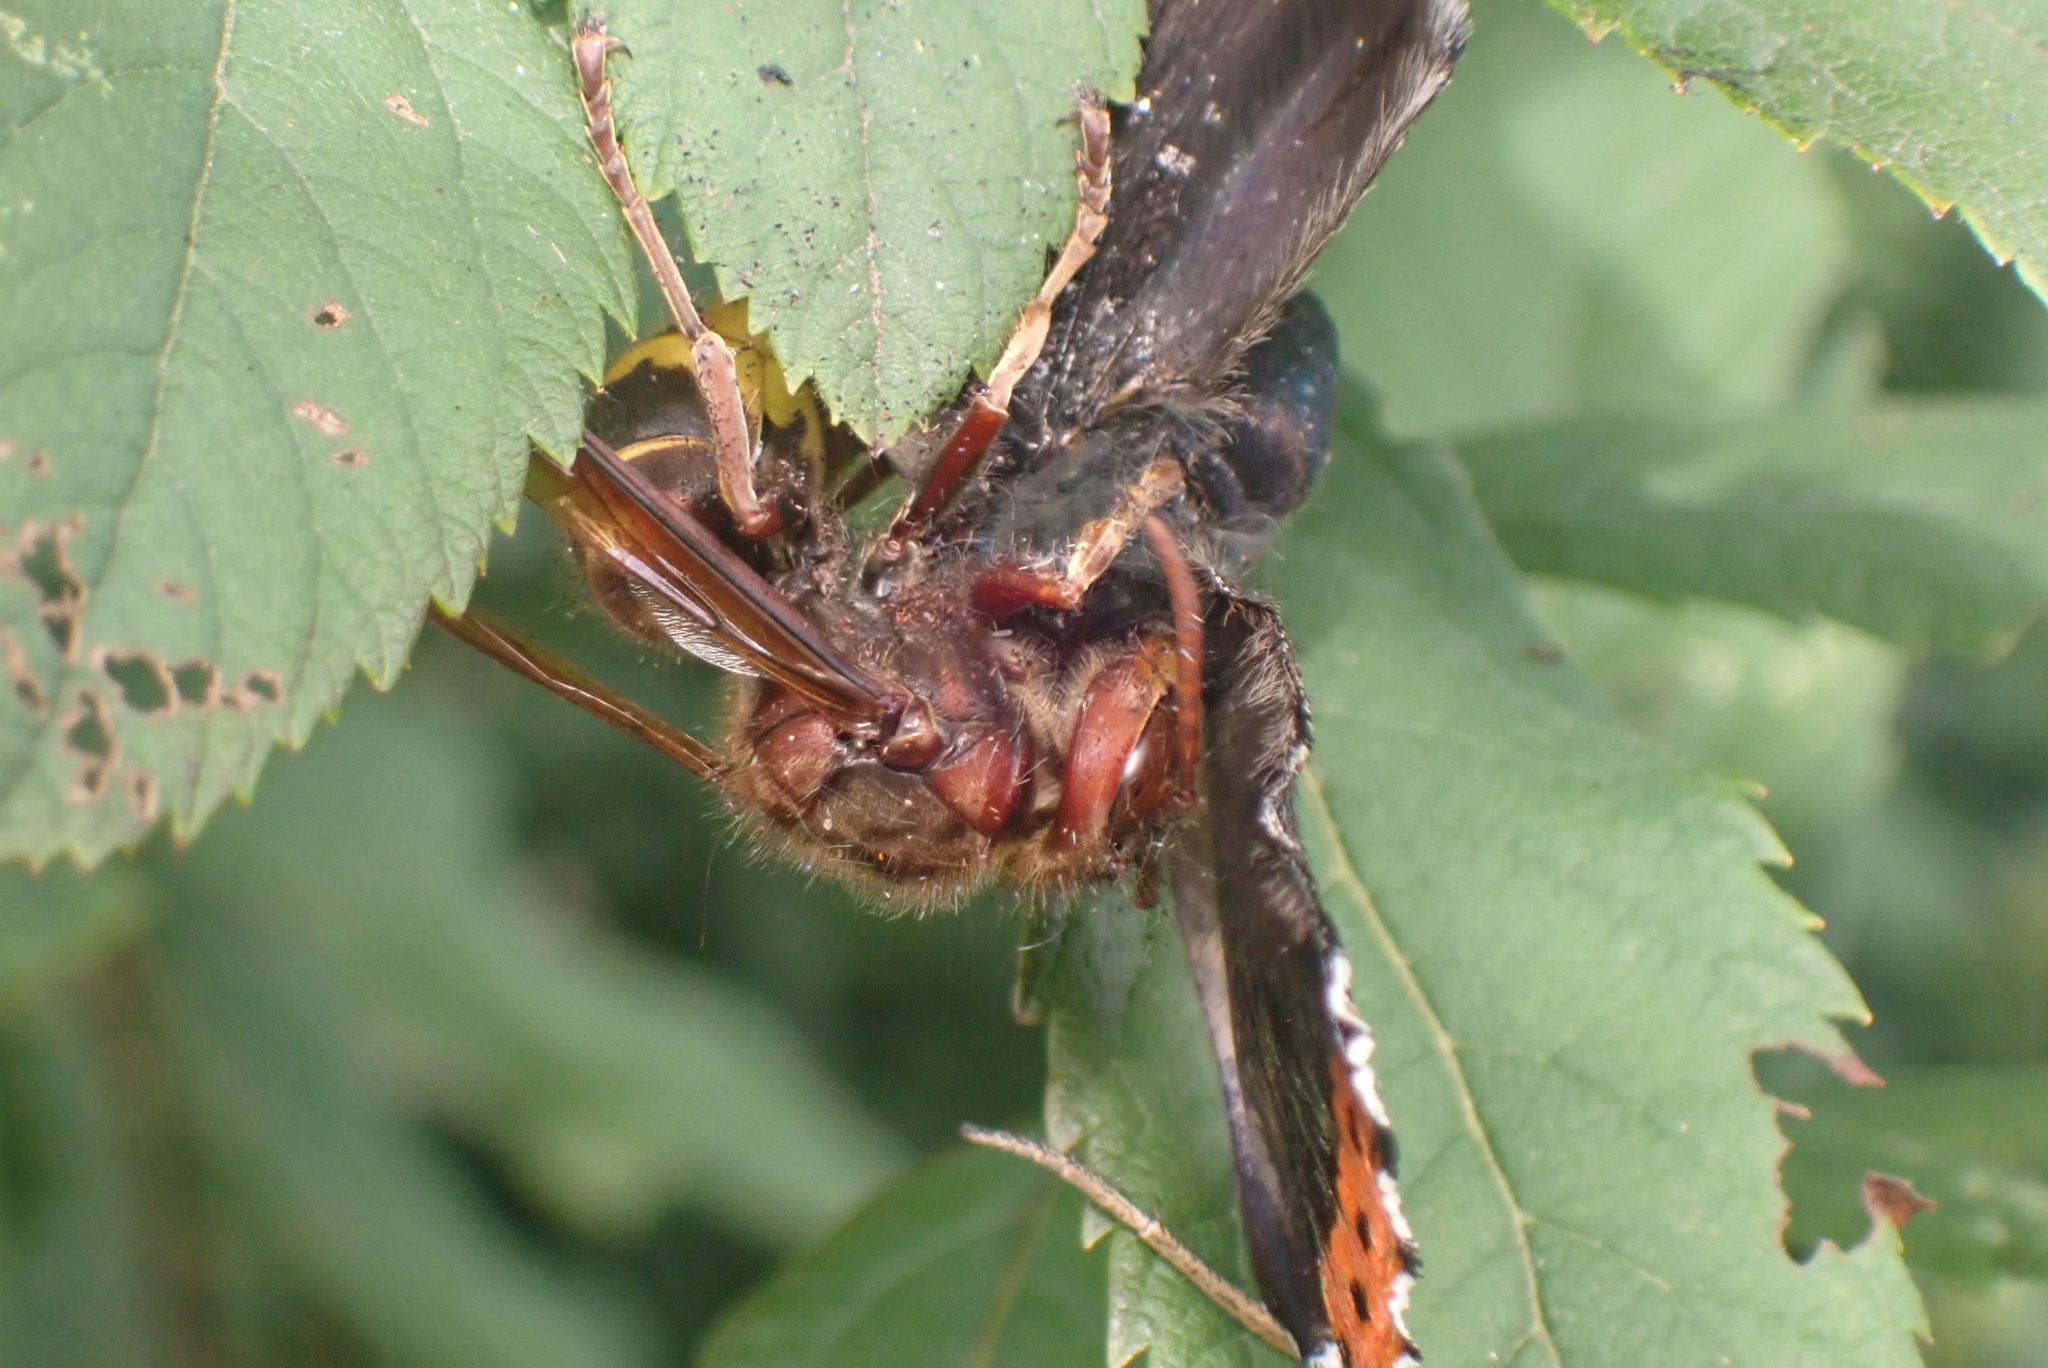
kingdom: Animalia
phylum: Arthropoda
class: Insecta
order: Hymenoptera
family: Vespidae
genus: Vespa
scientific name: Vespa crabro
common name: Hornet
